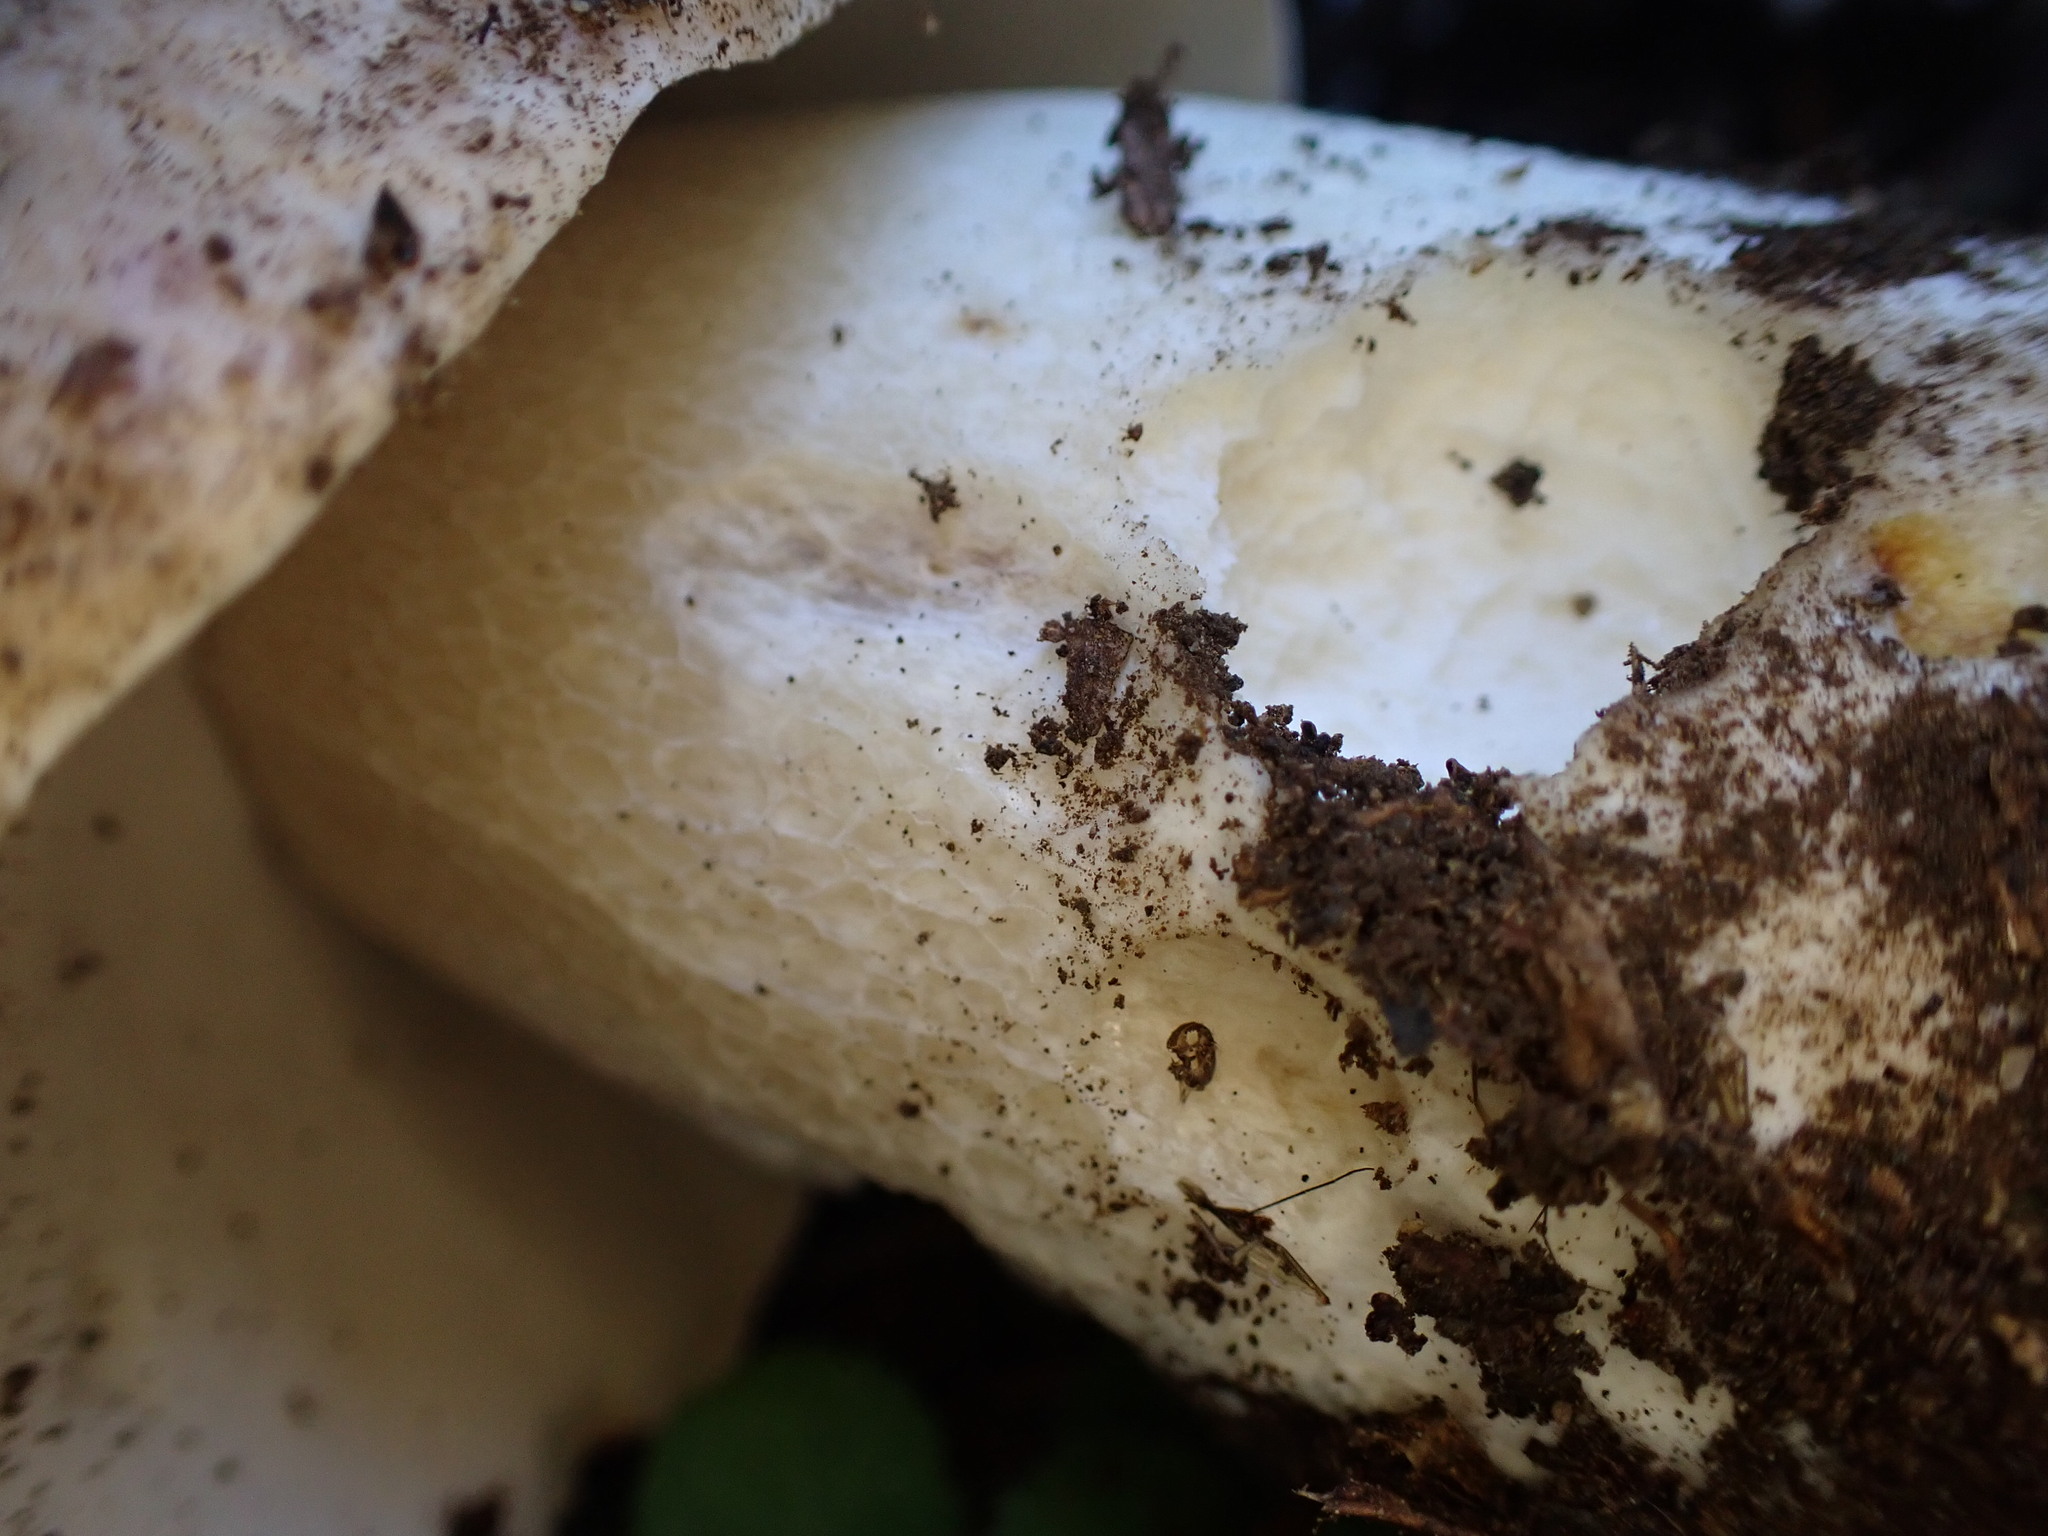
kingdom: Fungi
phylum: Basidiomycota
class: Agaricomycetes
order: Boletales
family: Boletaceae
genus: Boletus
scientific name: Boletus edulis
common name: Cep
